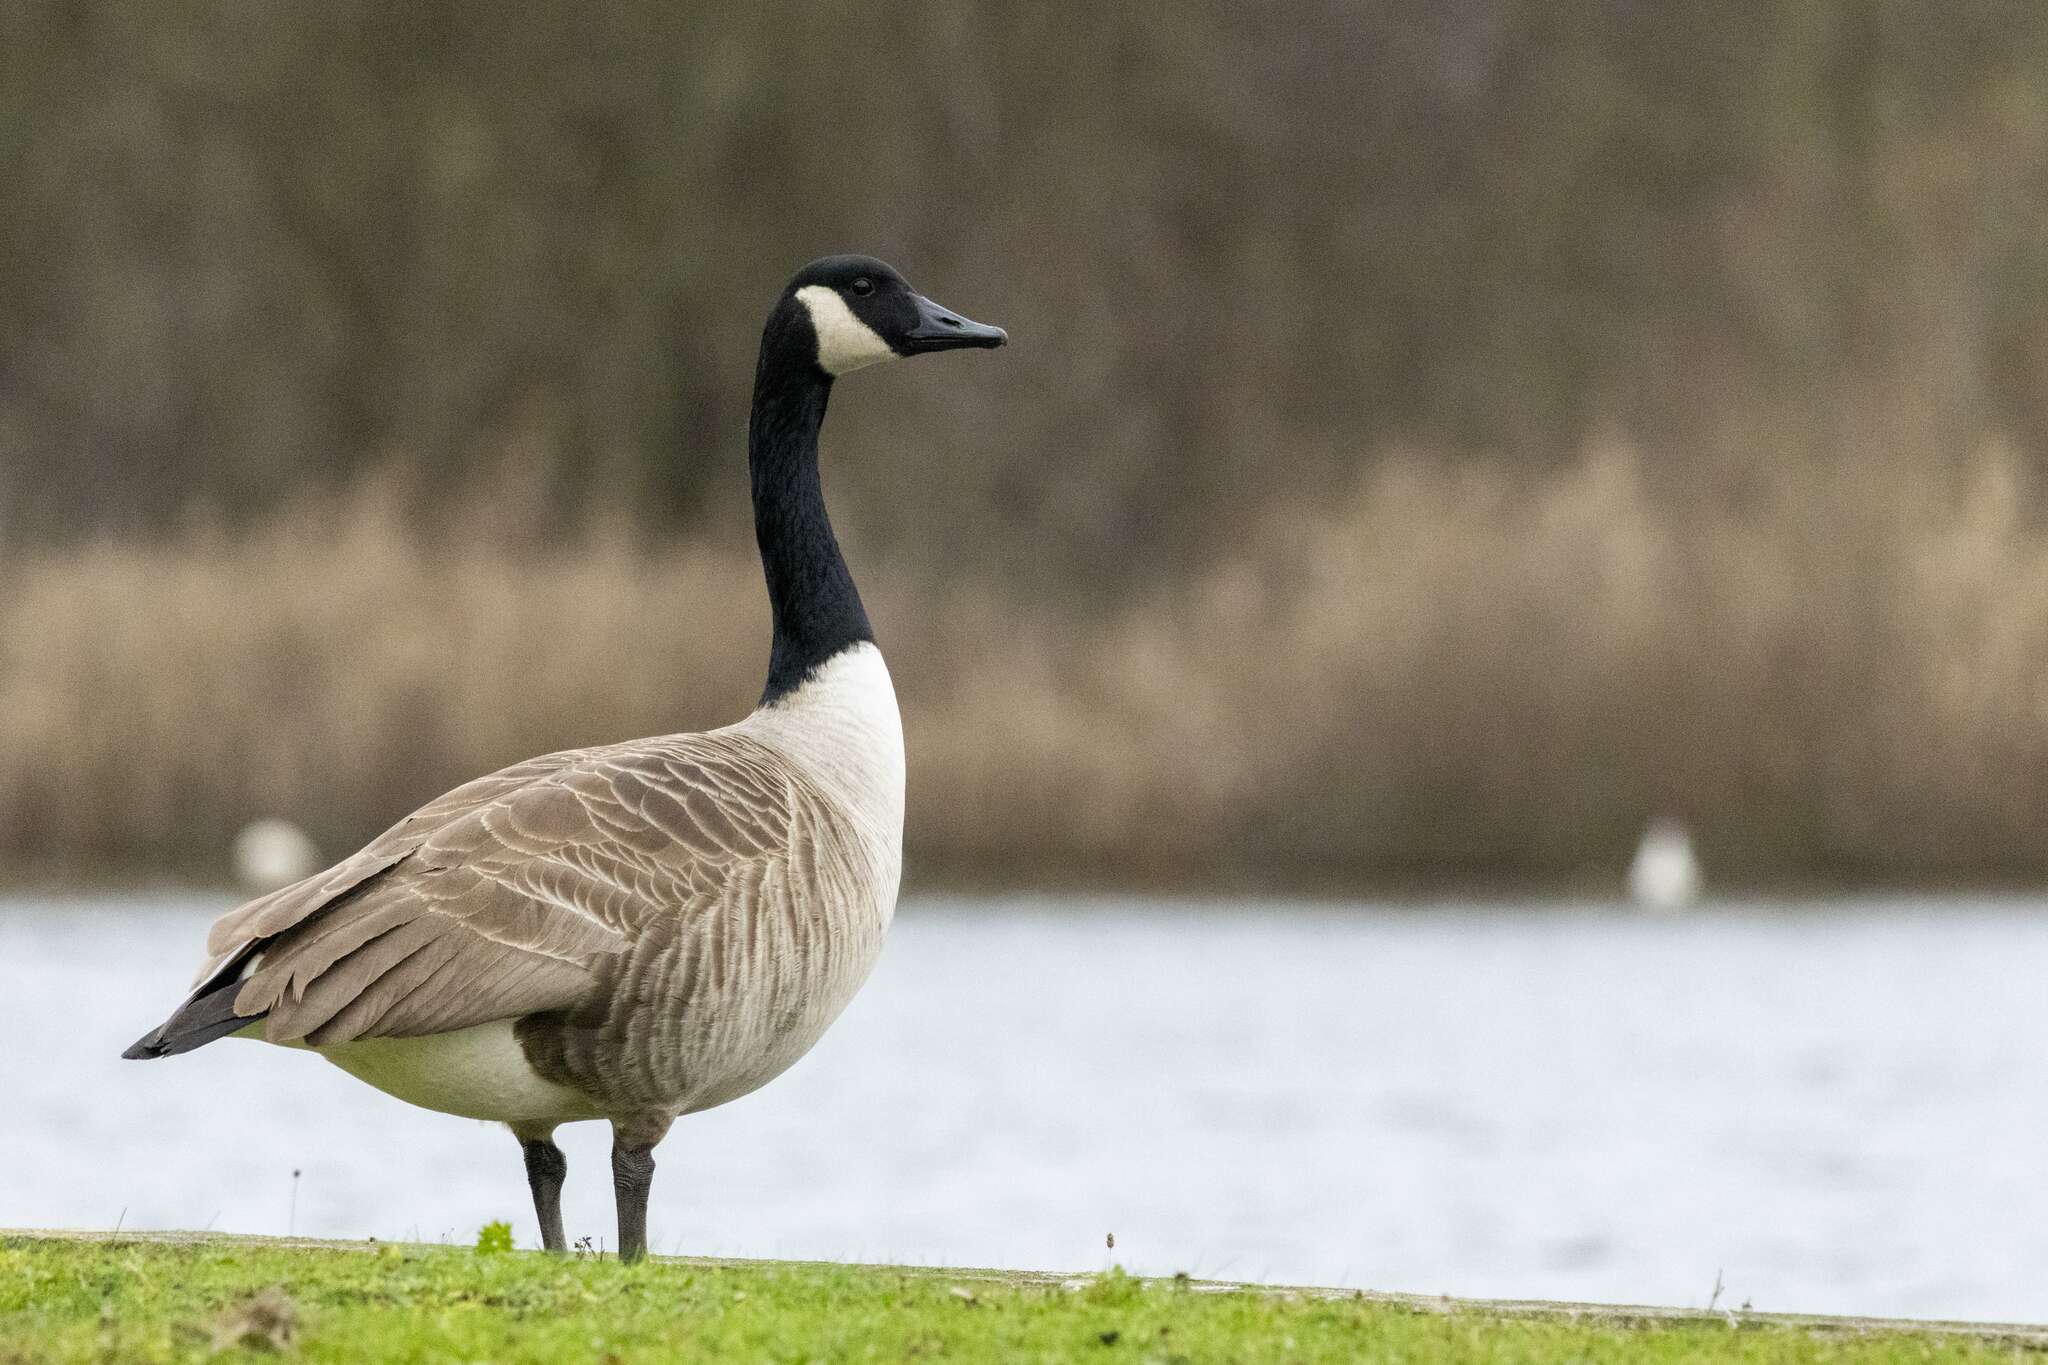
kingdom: Animalia
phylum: Chordata
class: Aves
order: Anseriformes
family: Anatidae
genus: Branta
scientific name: Branta canadensis
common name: Canada goose
